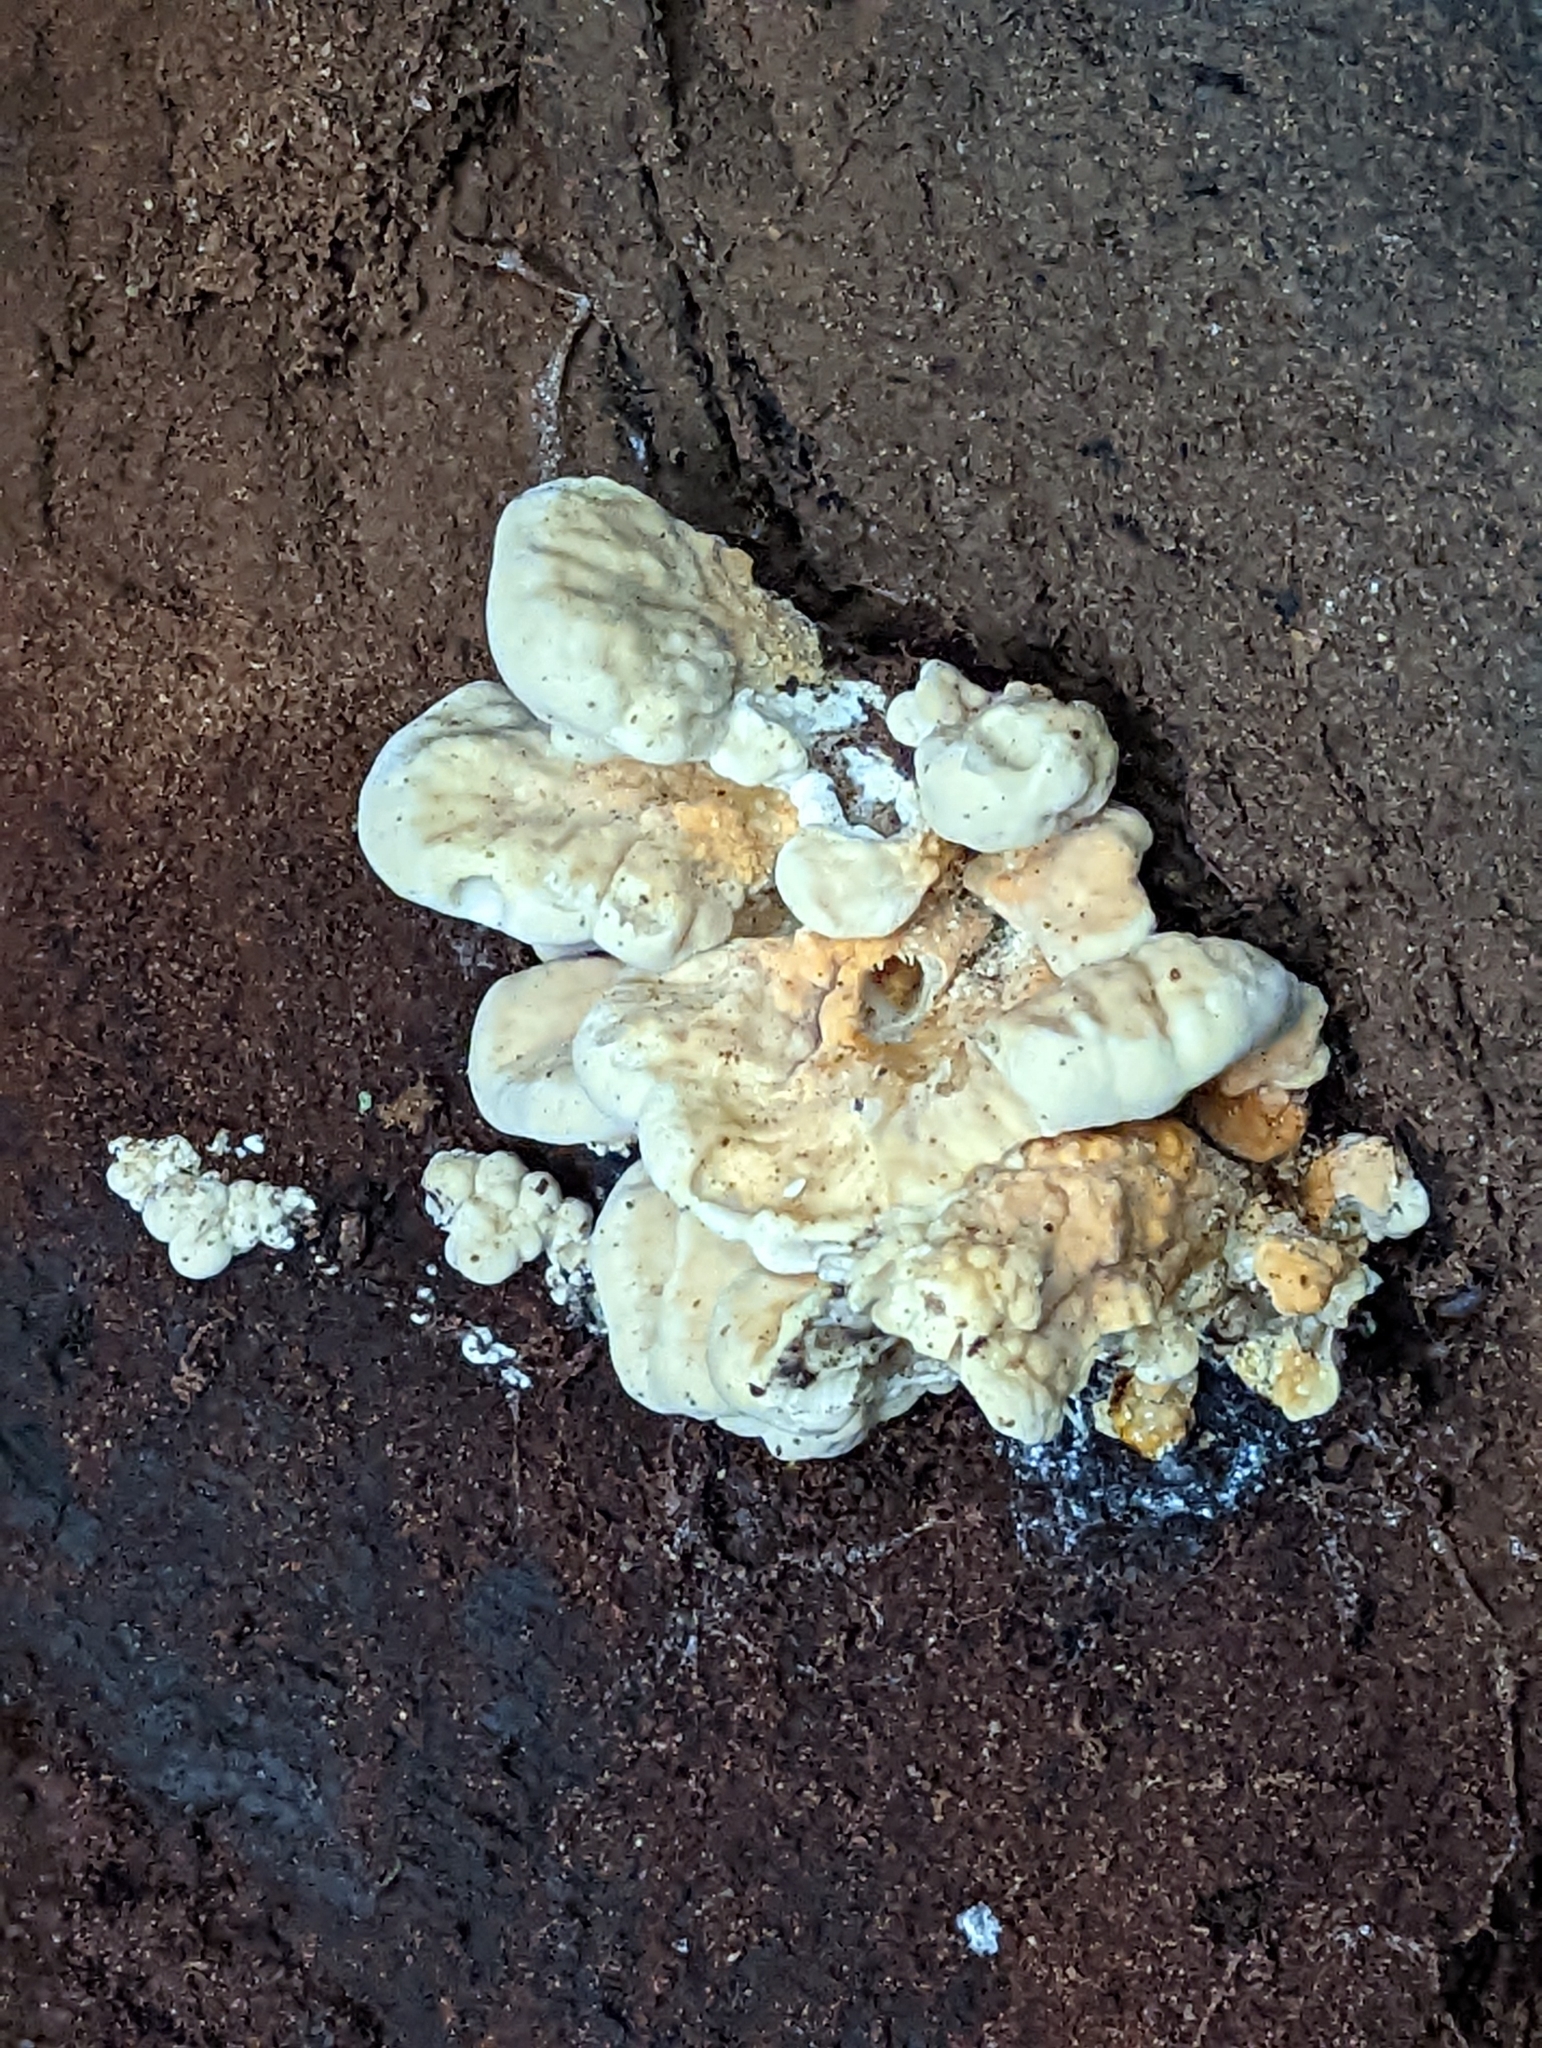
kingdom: Fungi
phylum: Basidiomycota
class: Agaricomycetes
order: Polyporales
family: Laetiporaceae
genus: Laetiporus
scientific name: Laetiporus sulphureus
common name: Chicken of the woods
